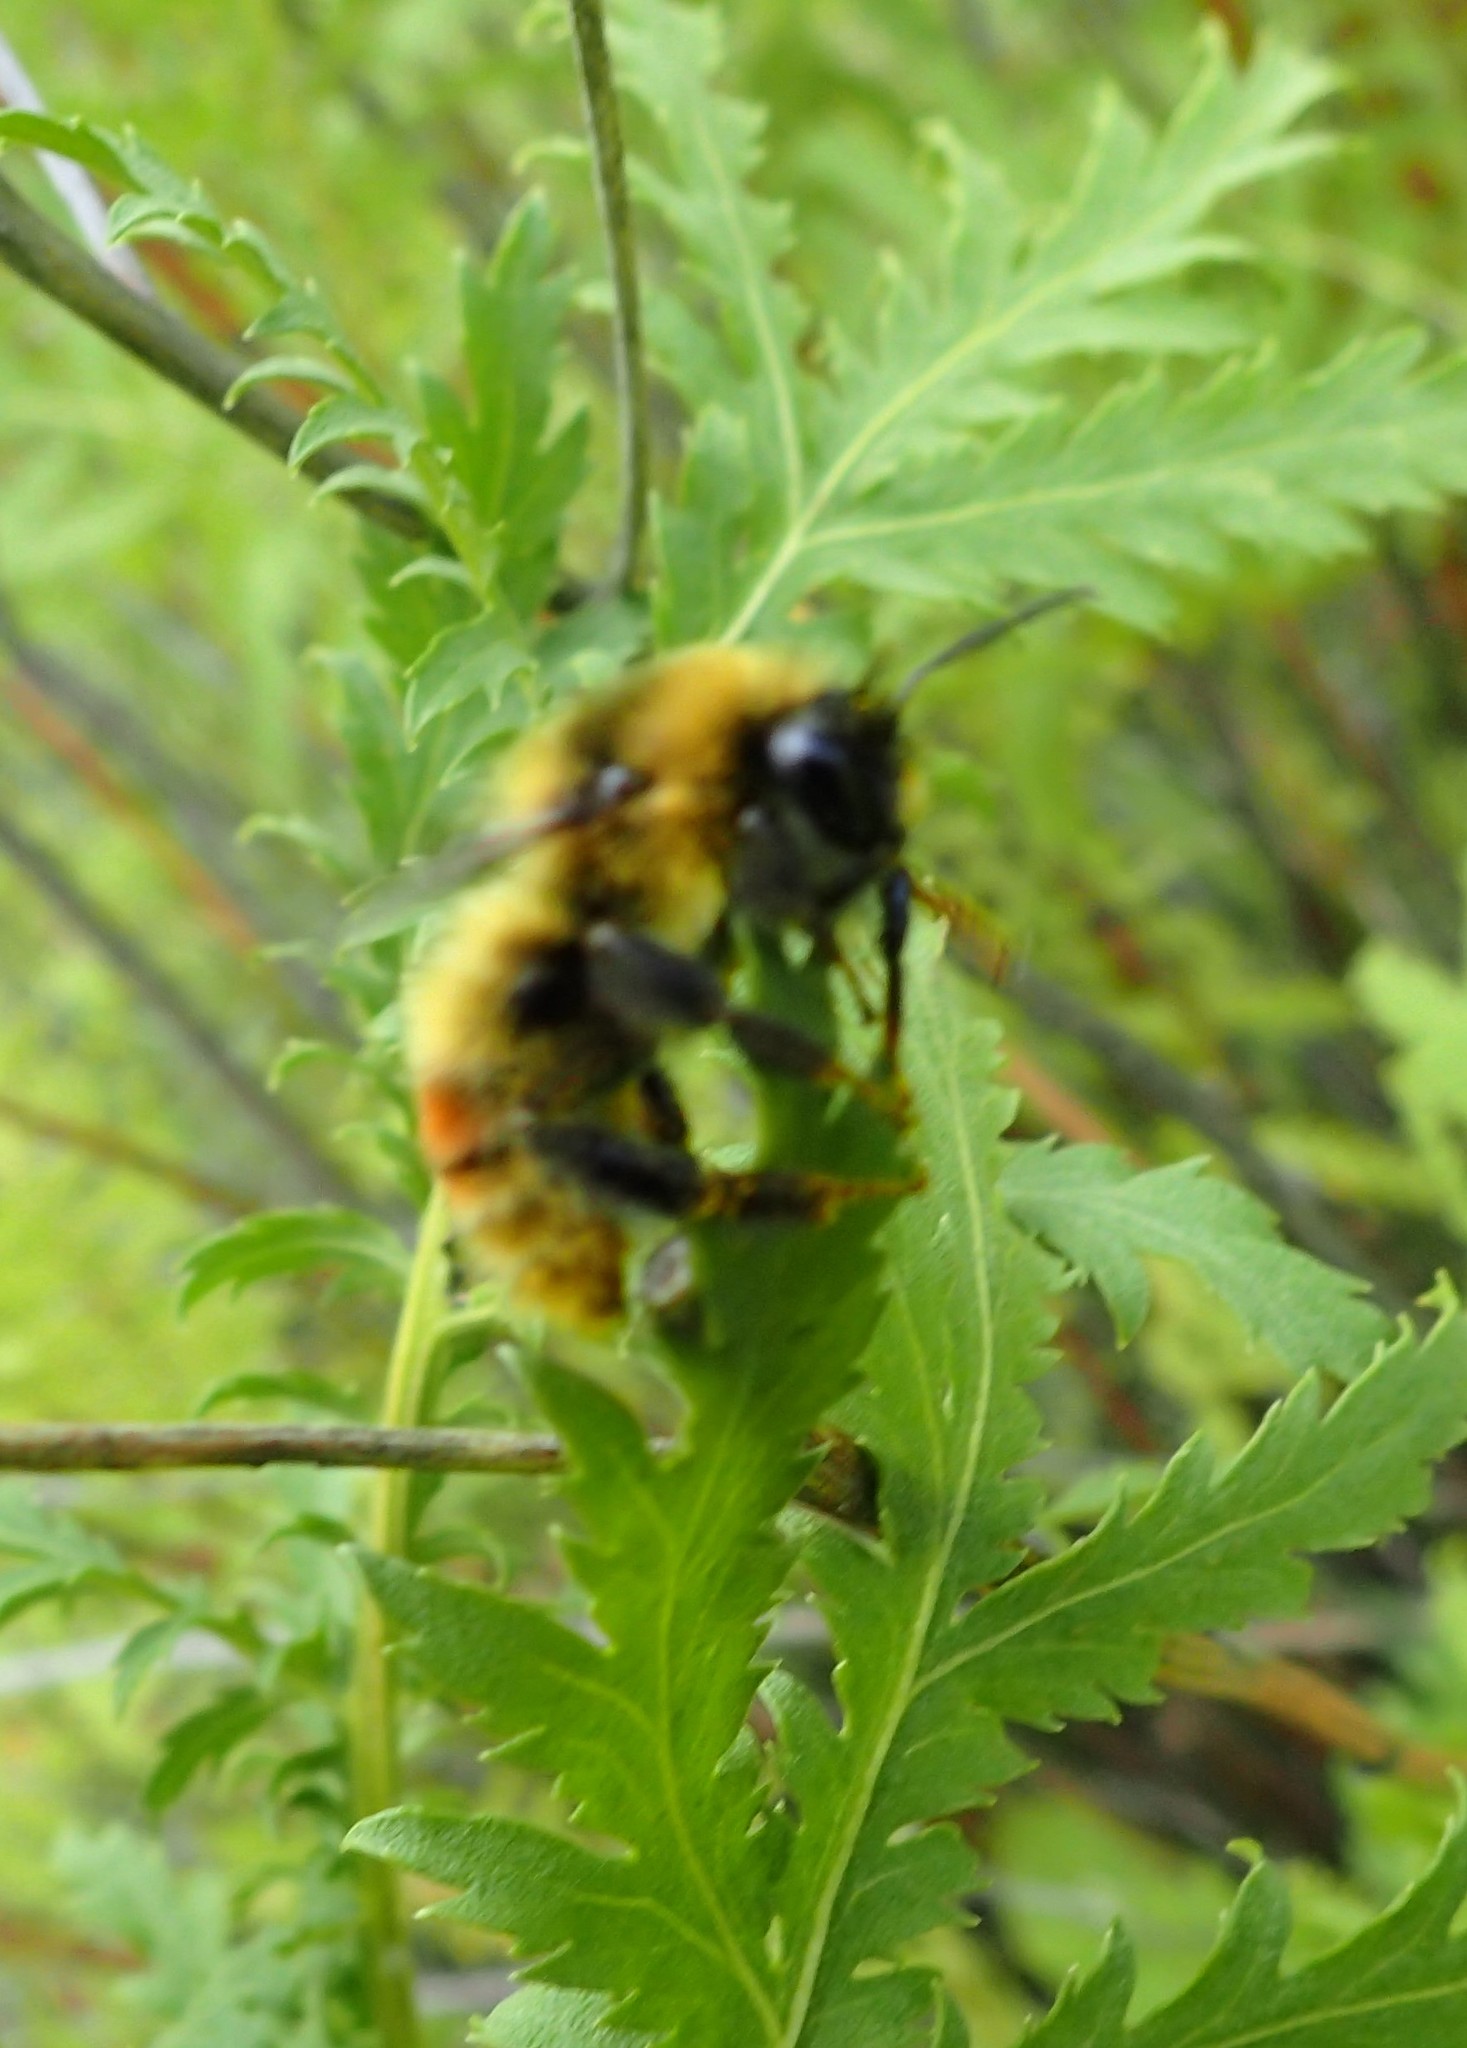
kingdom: Animalia
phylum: Arthropoda
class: Insecta
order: Hymenoptera
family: Apidae
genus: Bombus
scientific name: Bombus rufocinctus
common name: Red-belted bumble bee
